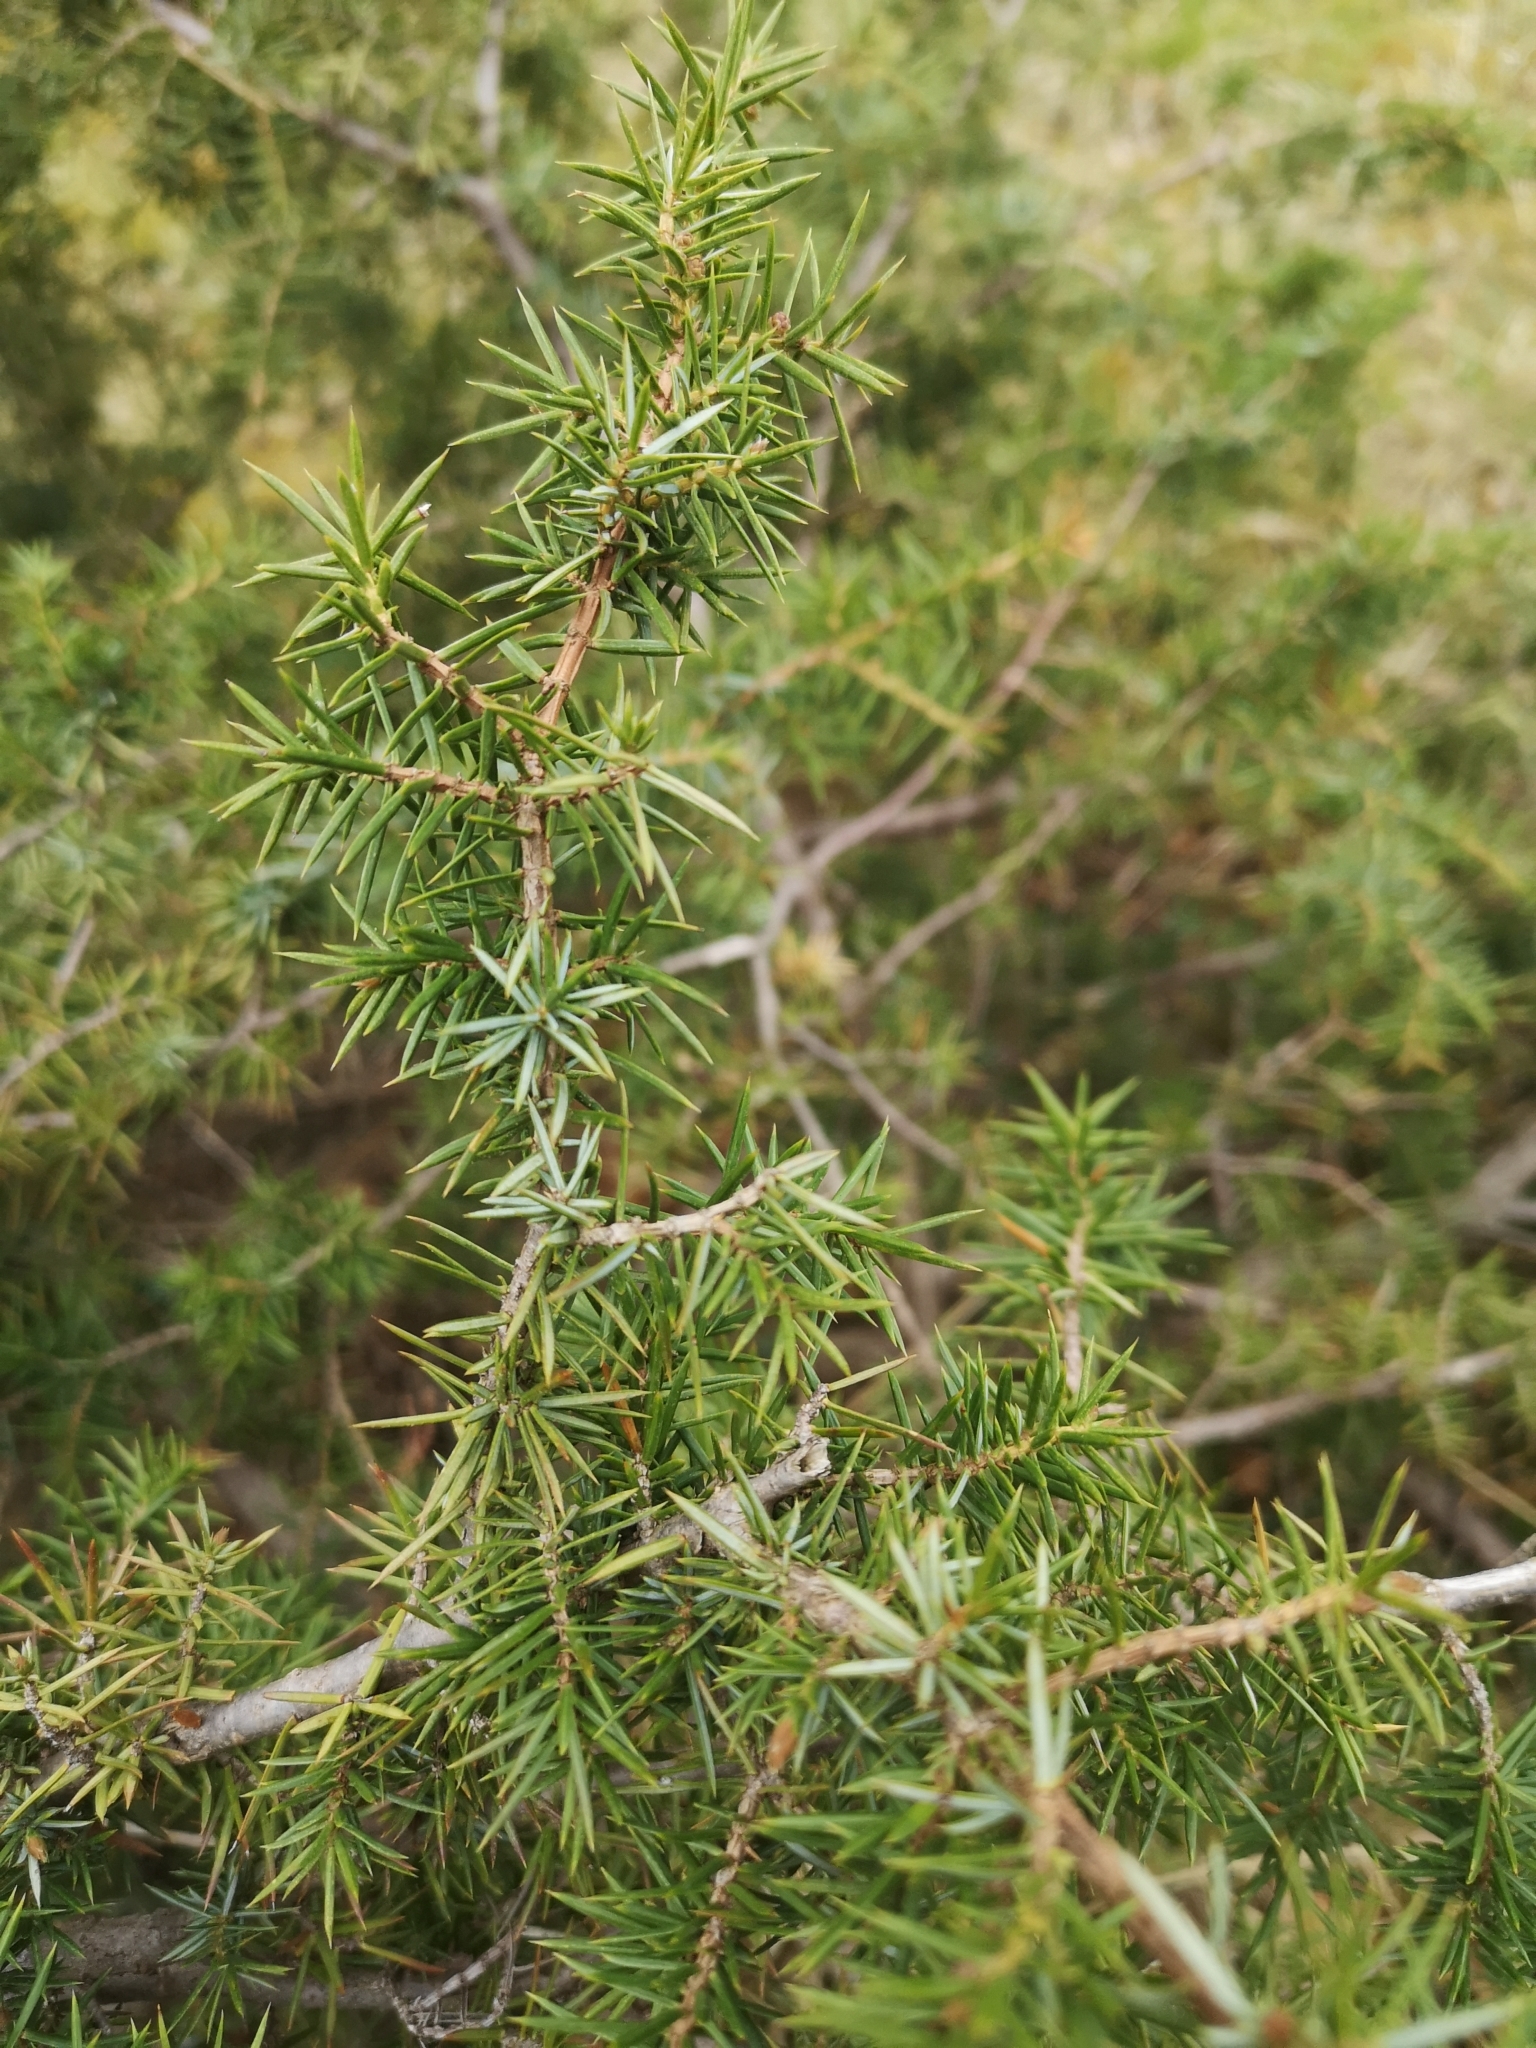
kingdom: Plantae
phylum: Tracheophyta
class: Pinopsida
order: Pinales
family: Cupressaceae
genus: Juniperus
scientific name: Juniperus communis
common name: Common juniper
